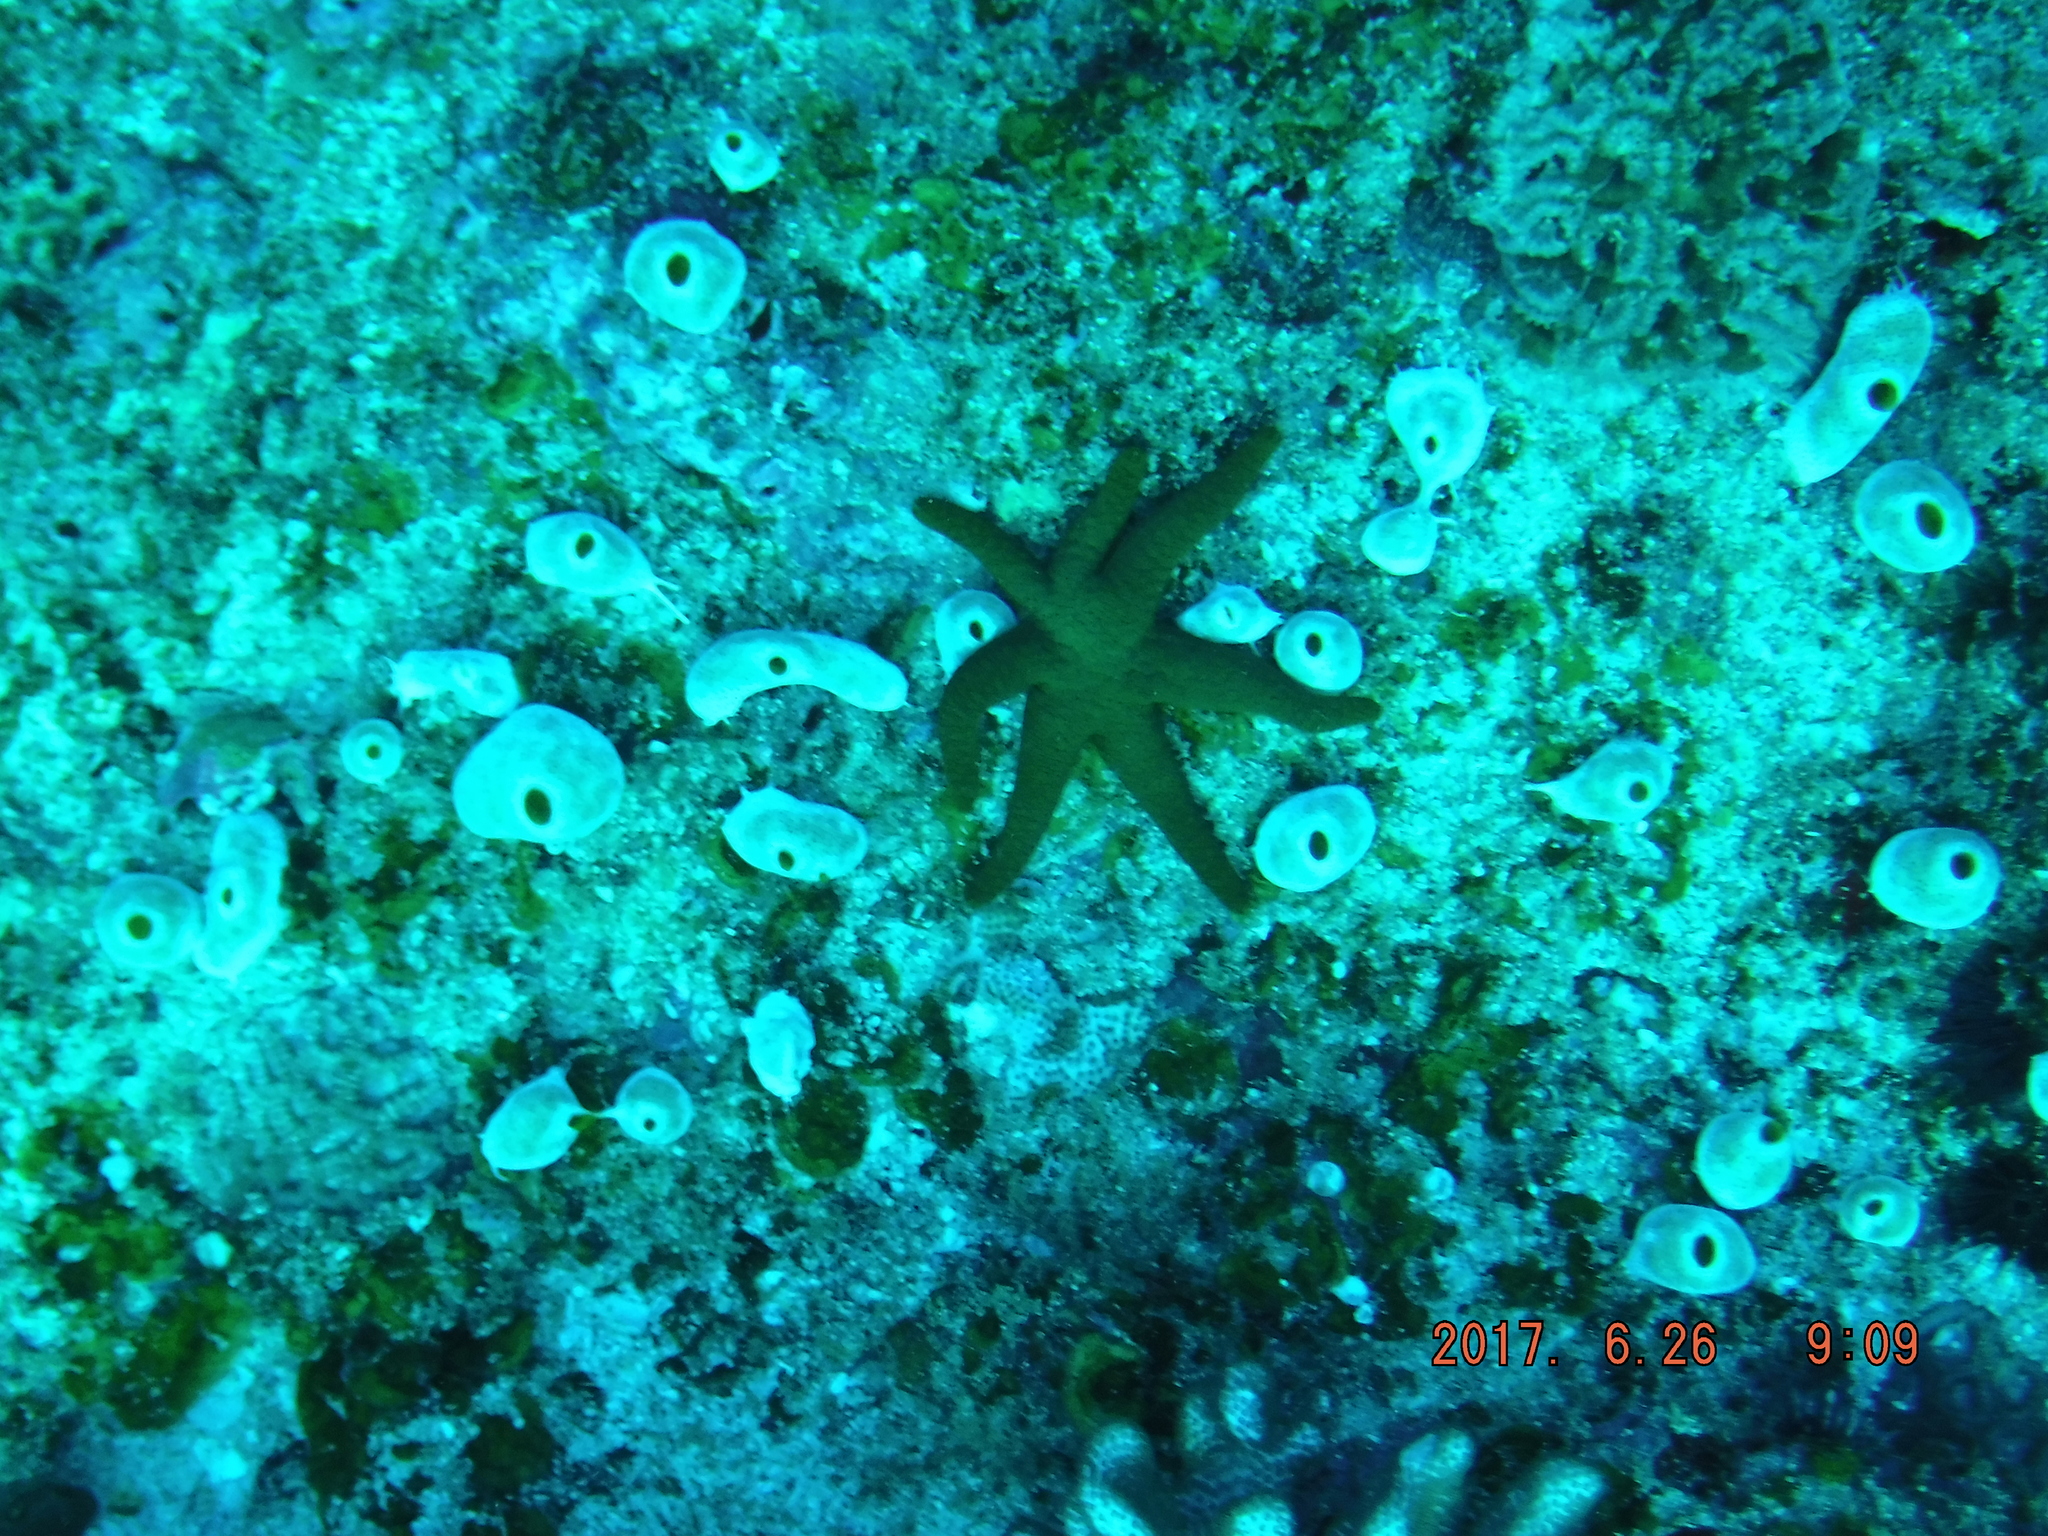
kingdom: Animalia
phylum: Echinodermata
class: Asteroidea
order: Valvatida
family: Goniasteridae
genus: Fromia
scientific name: Fromia indica
